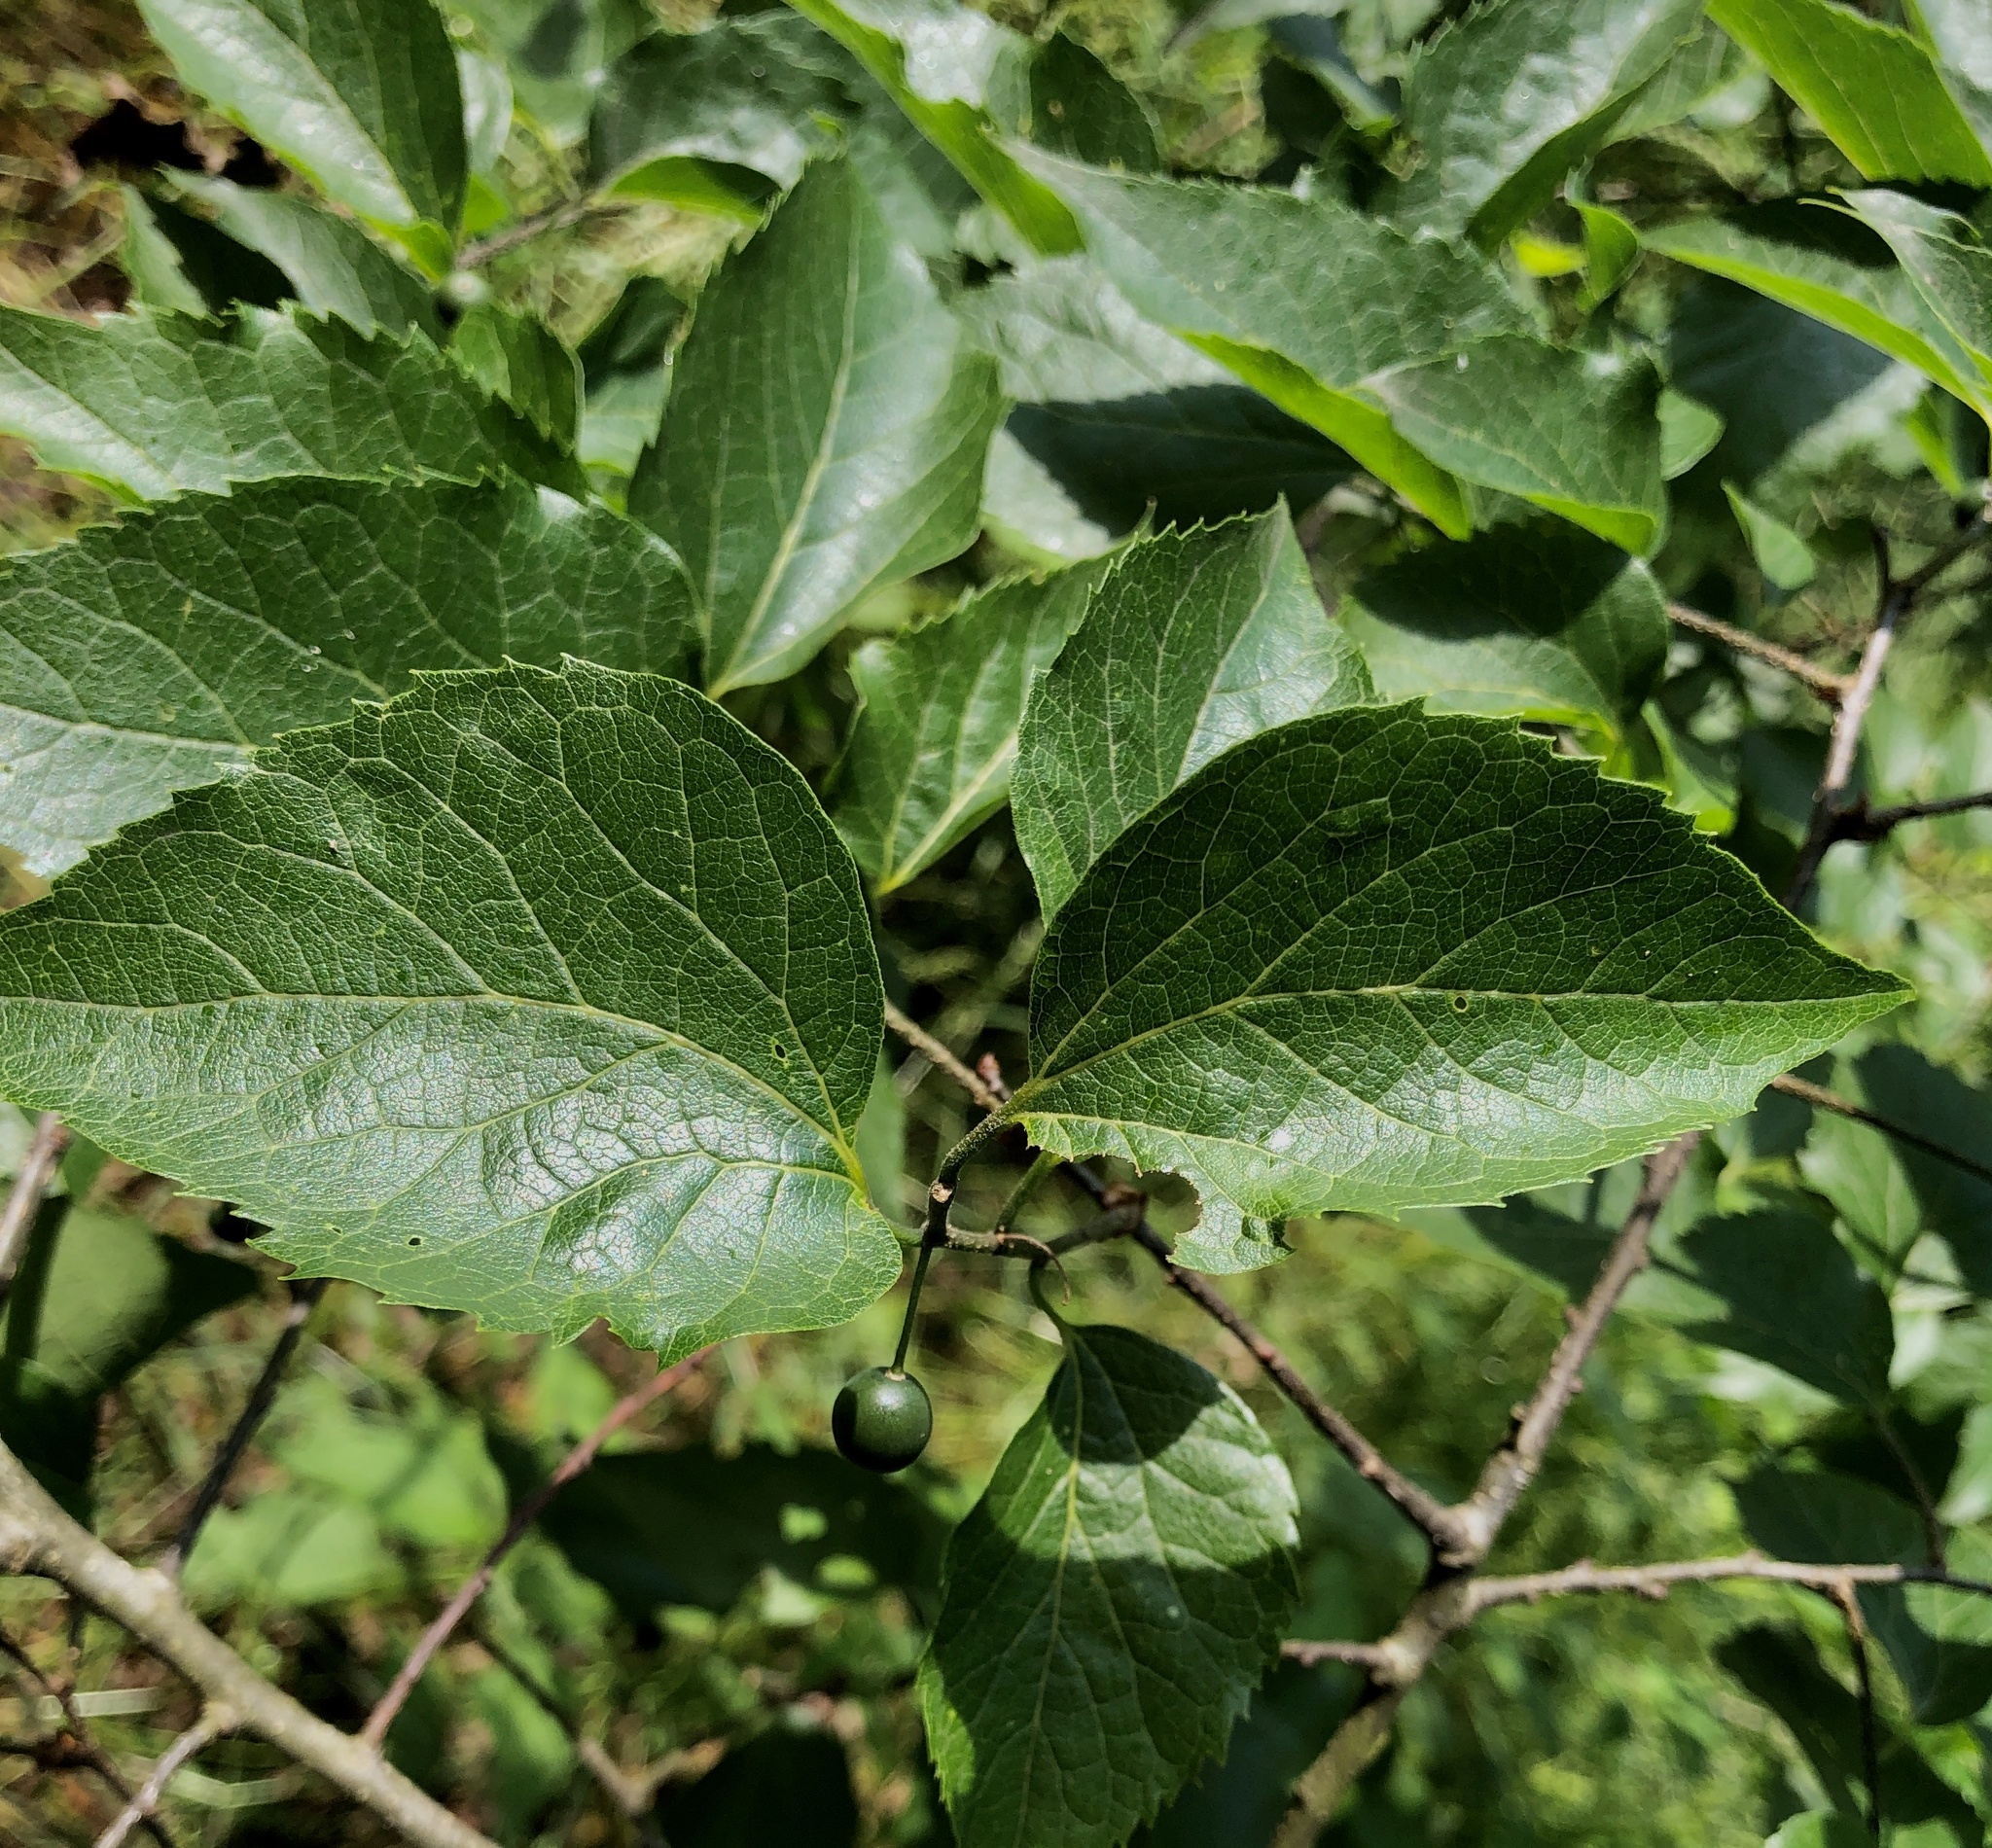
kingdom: Plantae
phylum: Tracheophyta
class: Magnoliopsida
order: Rosales
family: Cannabaceae
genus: Celtis
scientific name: Celtis occidentalis
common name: Common hackberry
